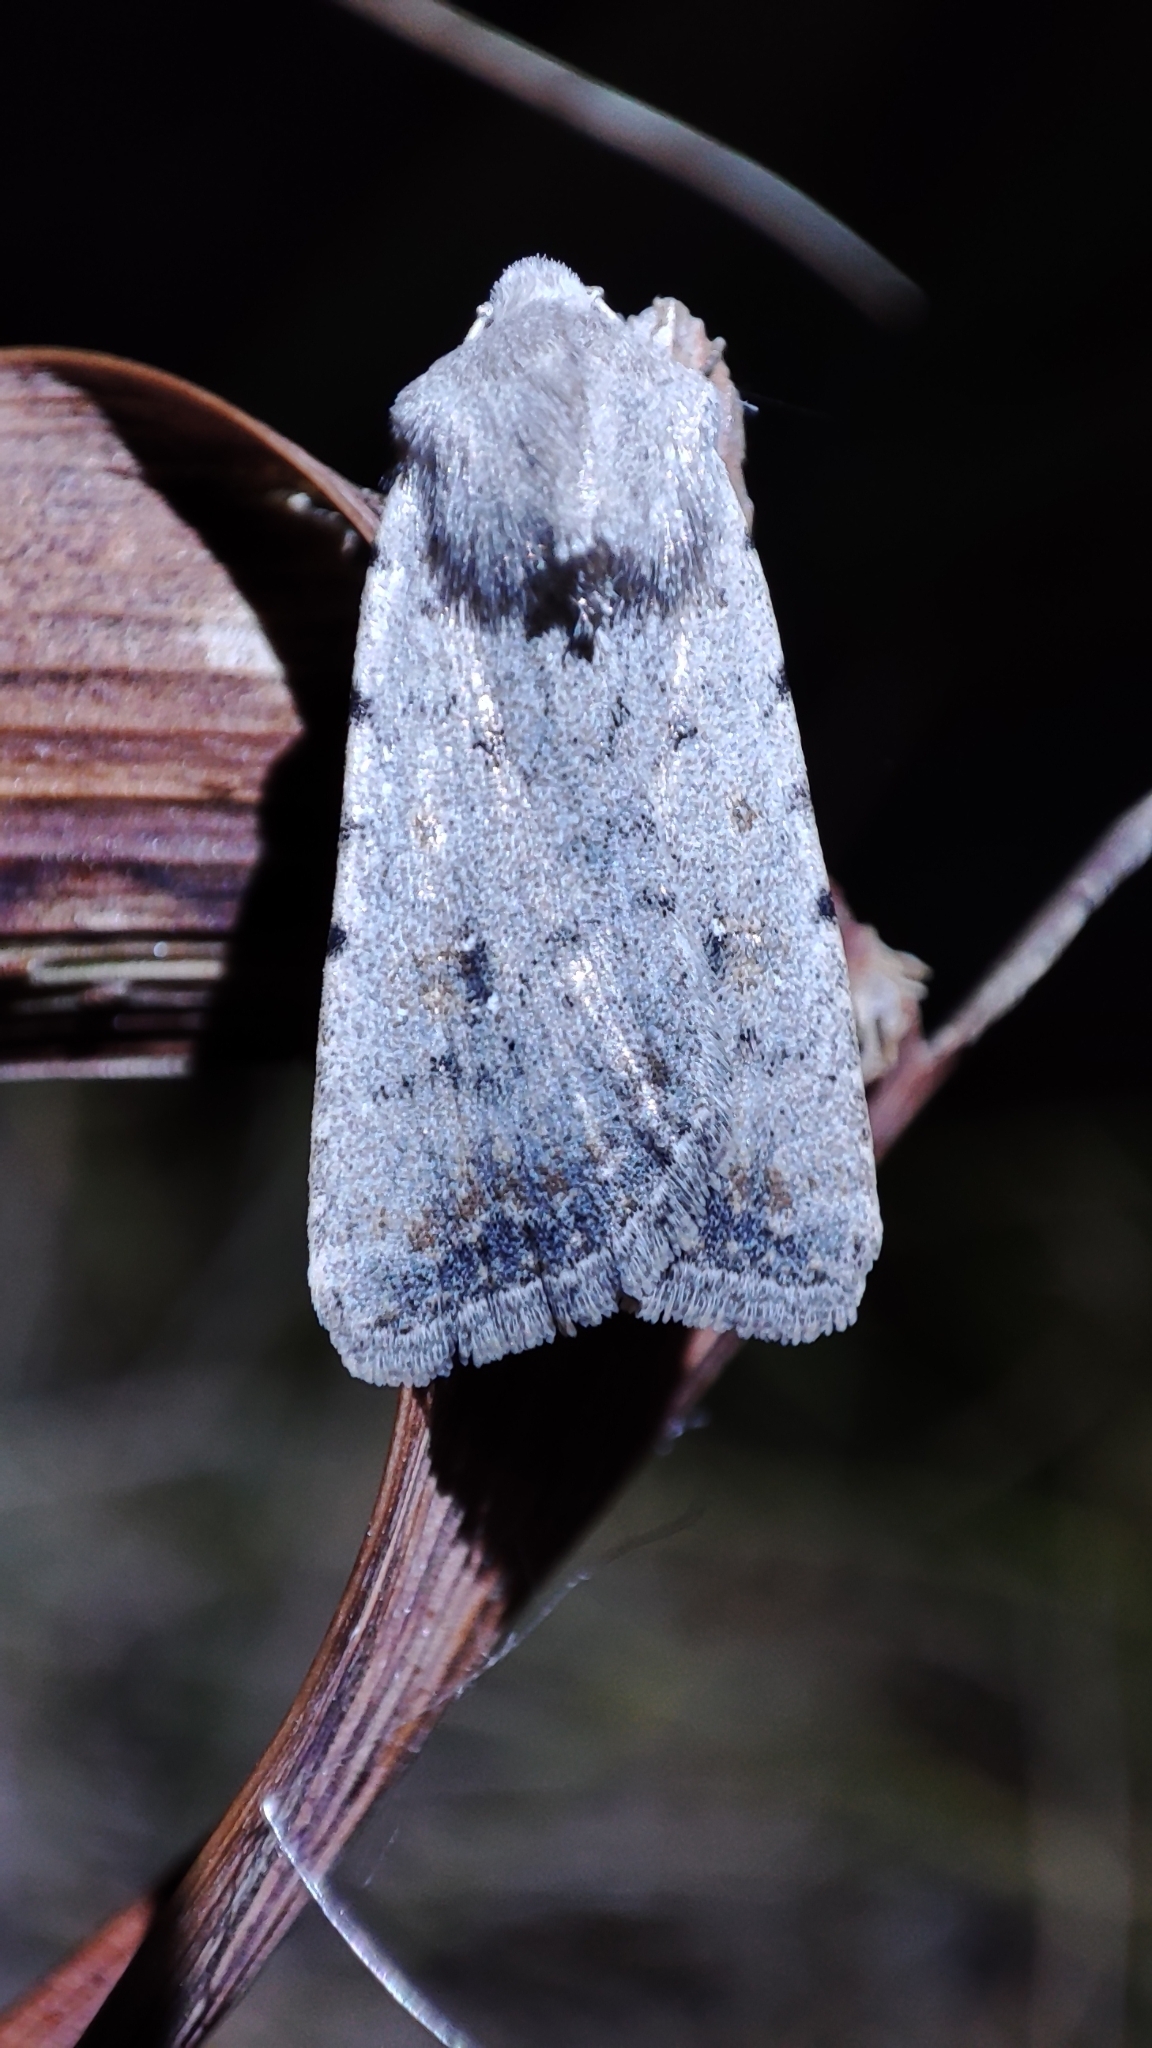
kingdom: Animalia
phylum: Arthropoda
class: Insecta
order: Lepidoptera
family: Noctuidae
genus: Caradrina
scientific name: Caradrina albina
